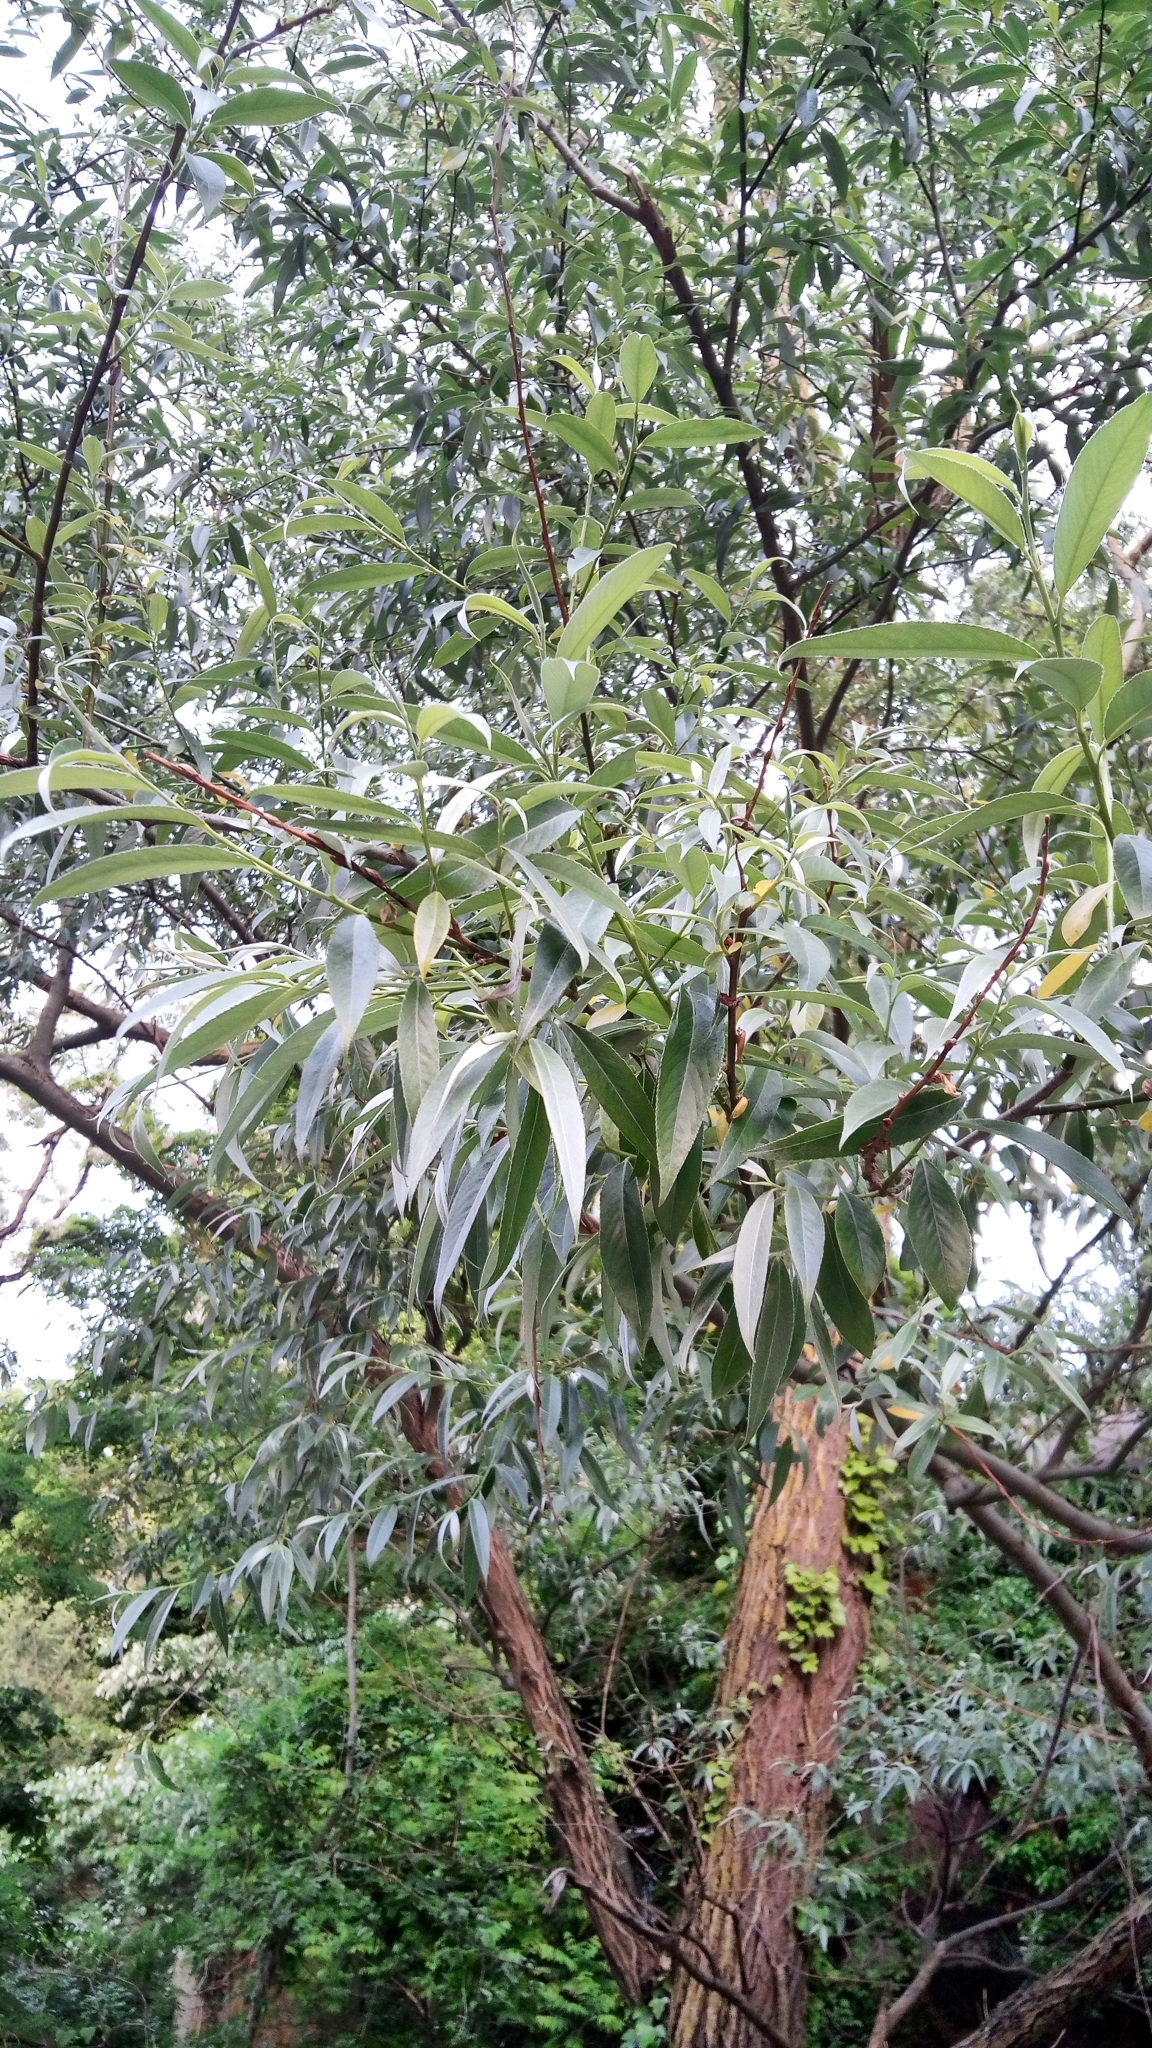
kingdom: Plantae
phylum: Tracheophyta
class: Magnoliopsida
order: Malpighiales
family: Salicaceae
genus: Salix
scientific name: Salix alba
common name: White willow
